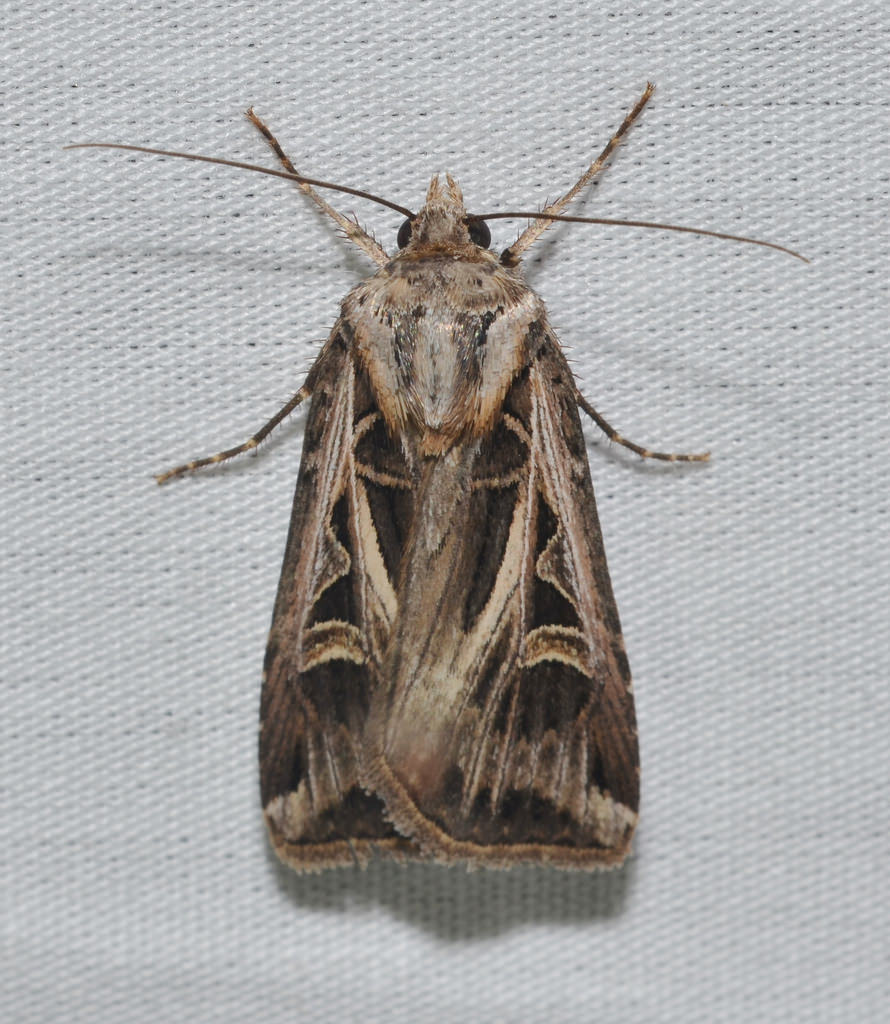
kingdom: Animalia
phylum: Arthropoda
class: Insecta
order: Lepidoptera
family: Noctuidae
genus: Feltia
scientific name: Feltia jaculifera
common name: Dingy cutworm moth
